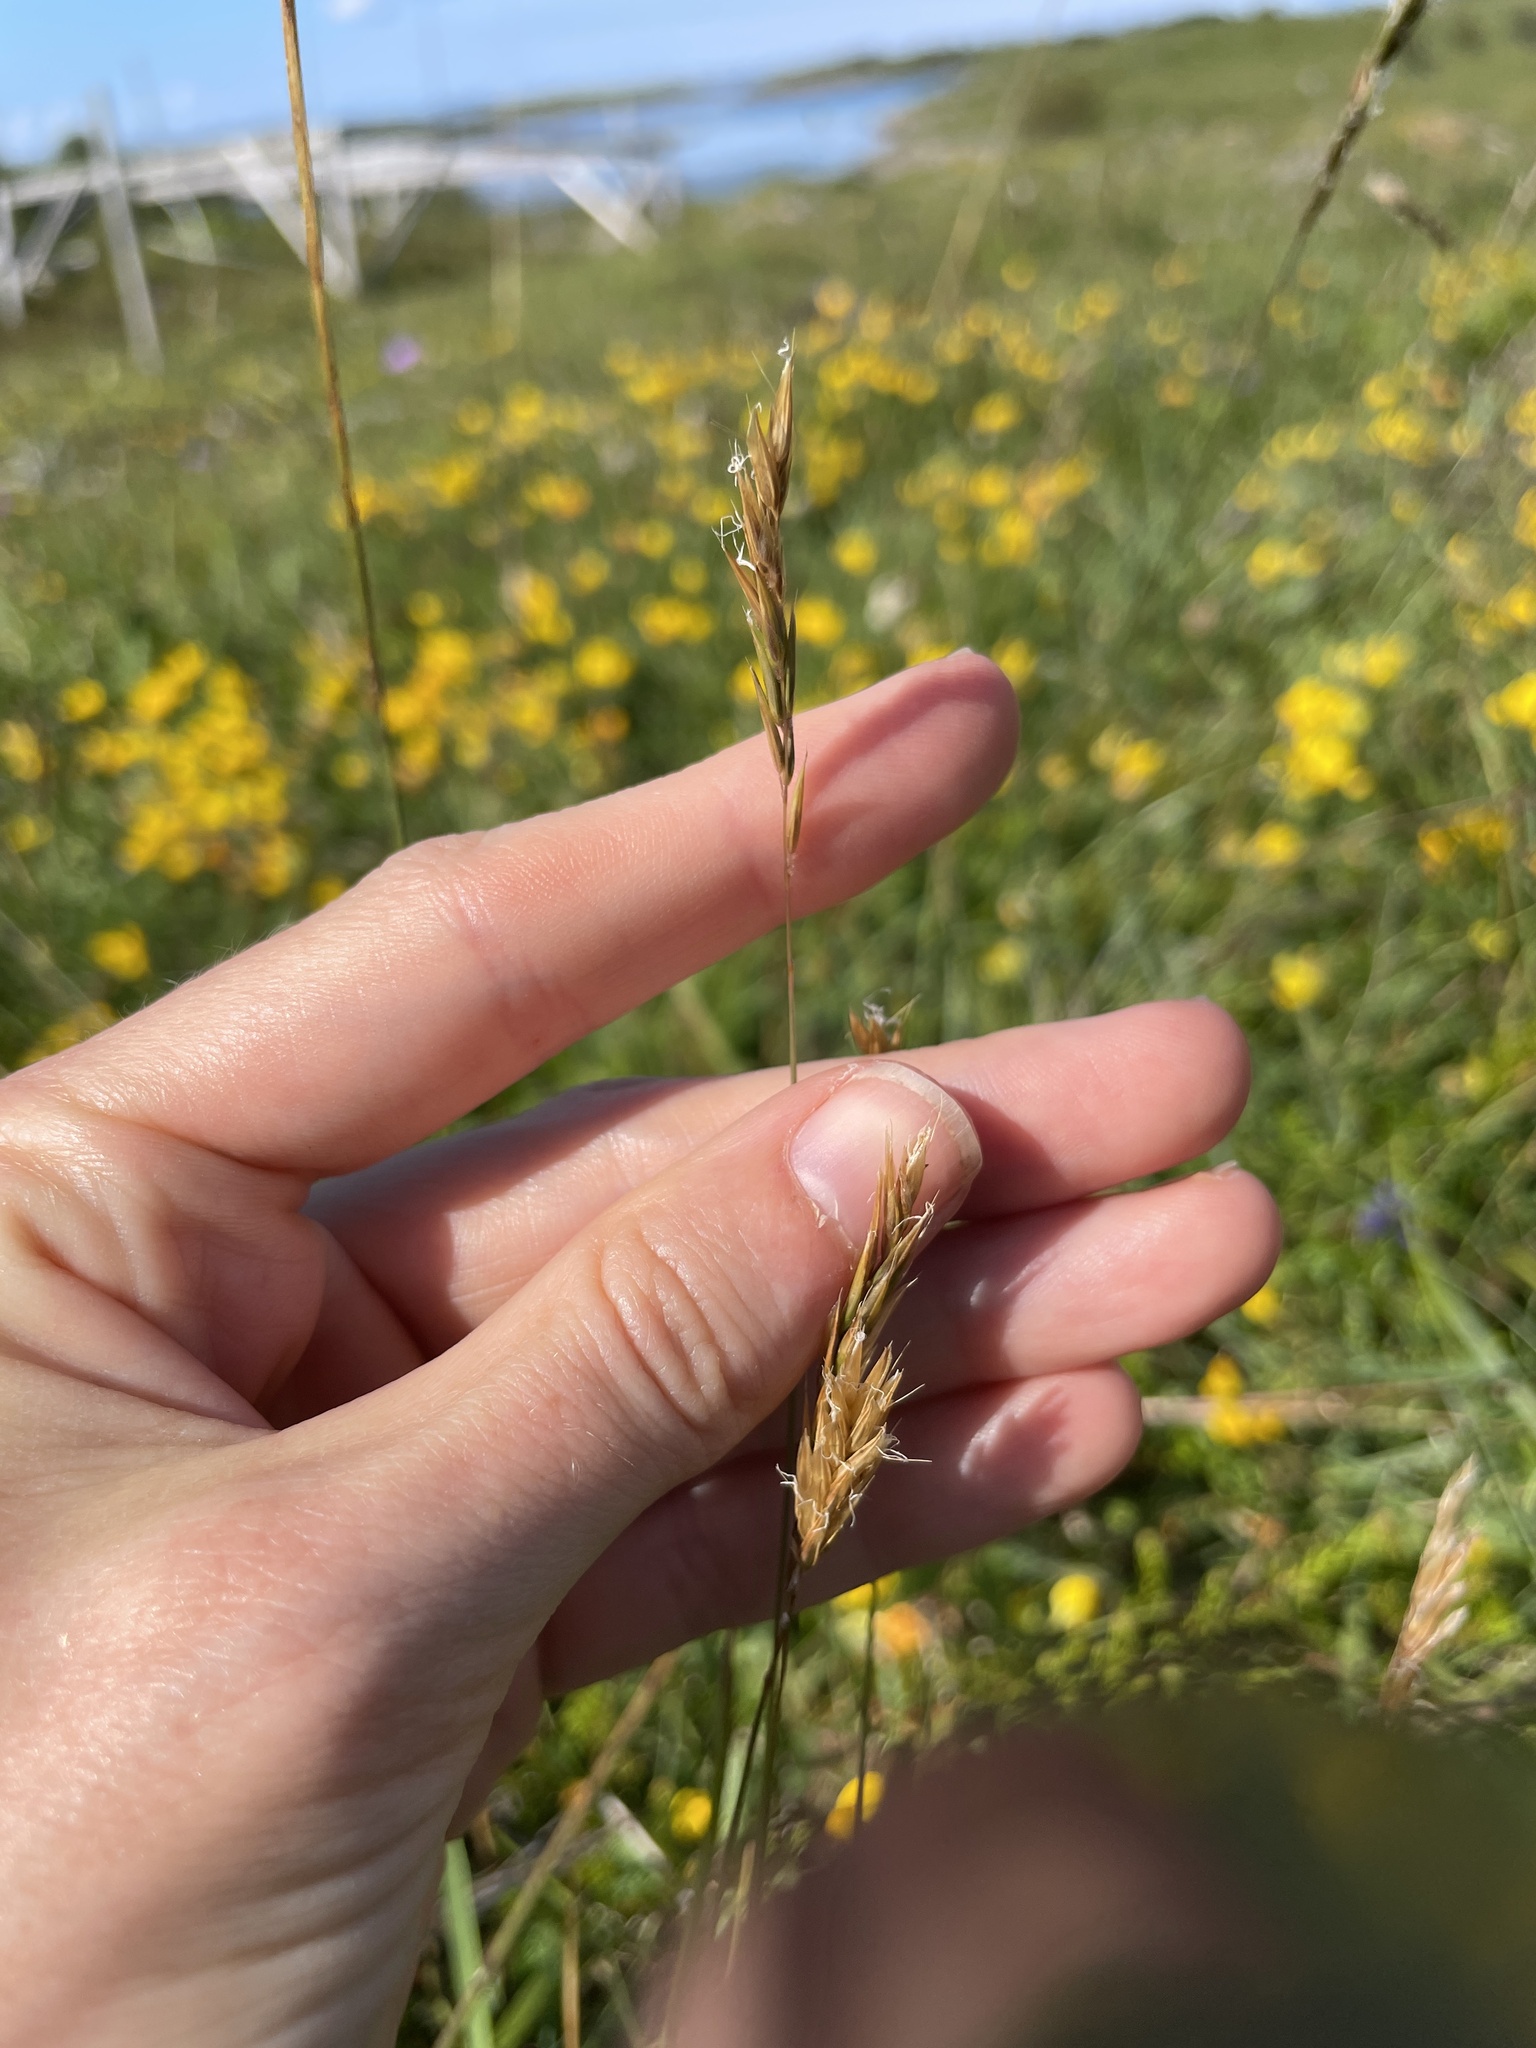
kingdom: Plantae
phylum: Tracheophyta
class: Liliopsida
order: Poales
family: Poaceae
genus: Anthoxanthum
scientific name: Anthoxanthum odoratum
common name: Sweet vernalgrass
